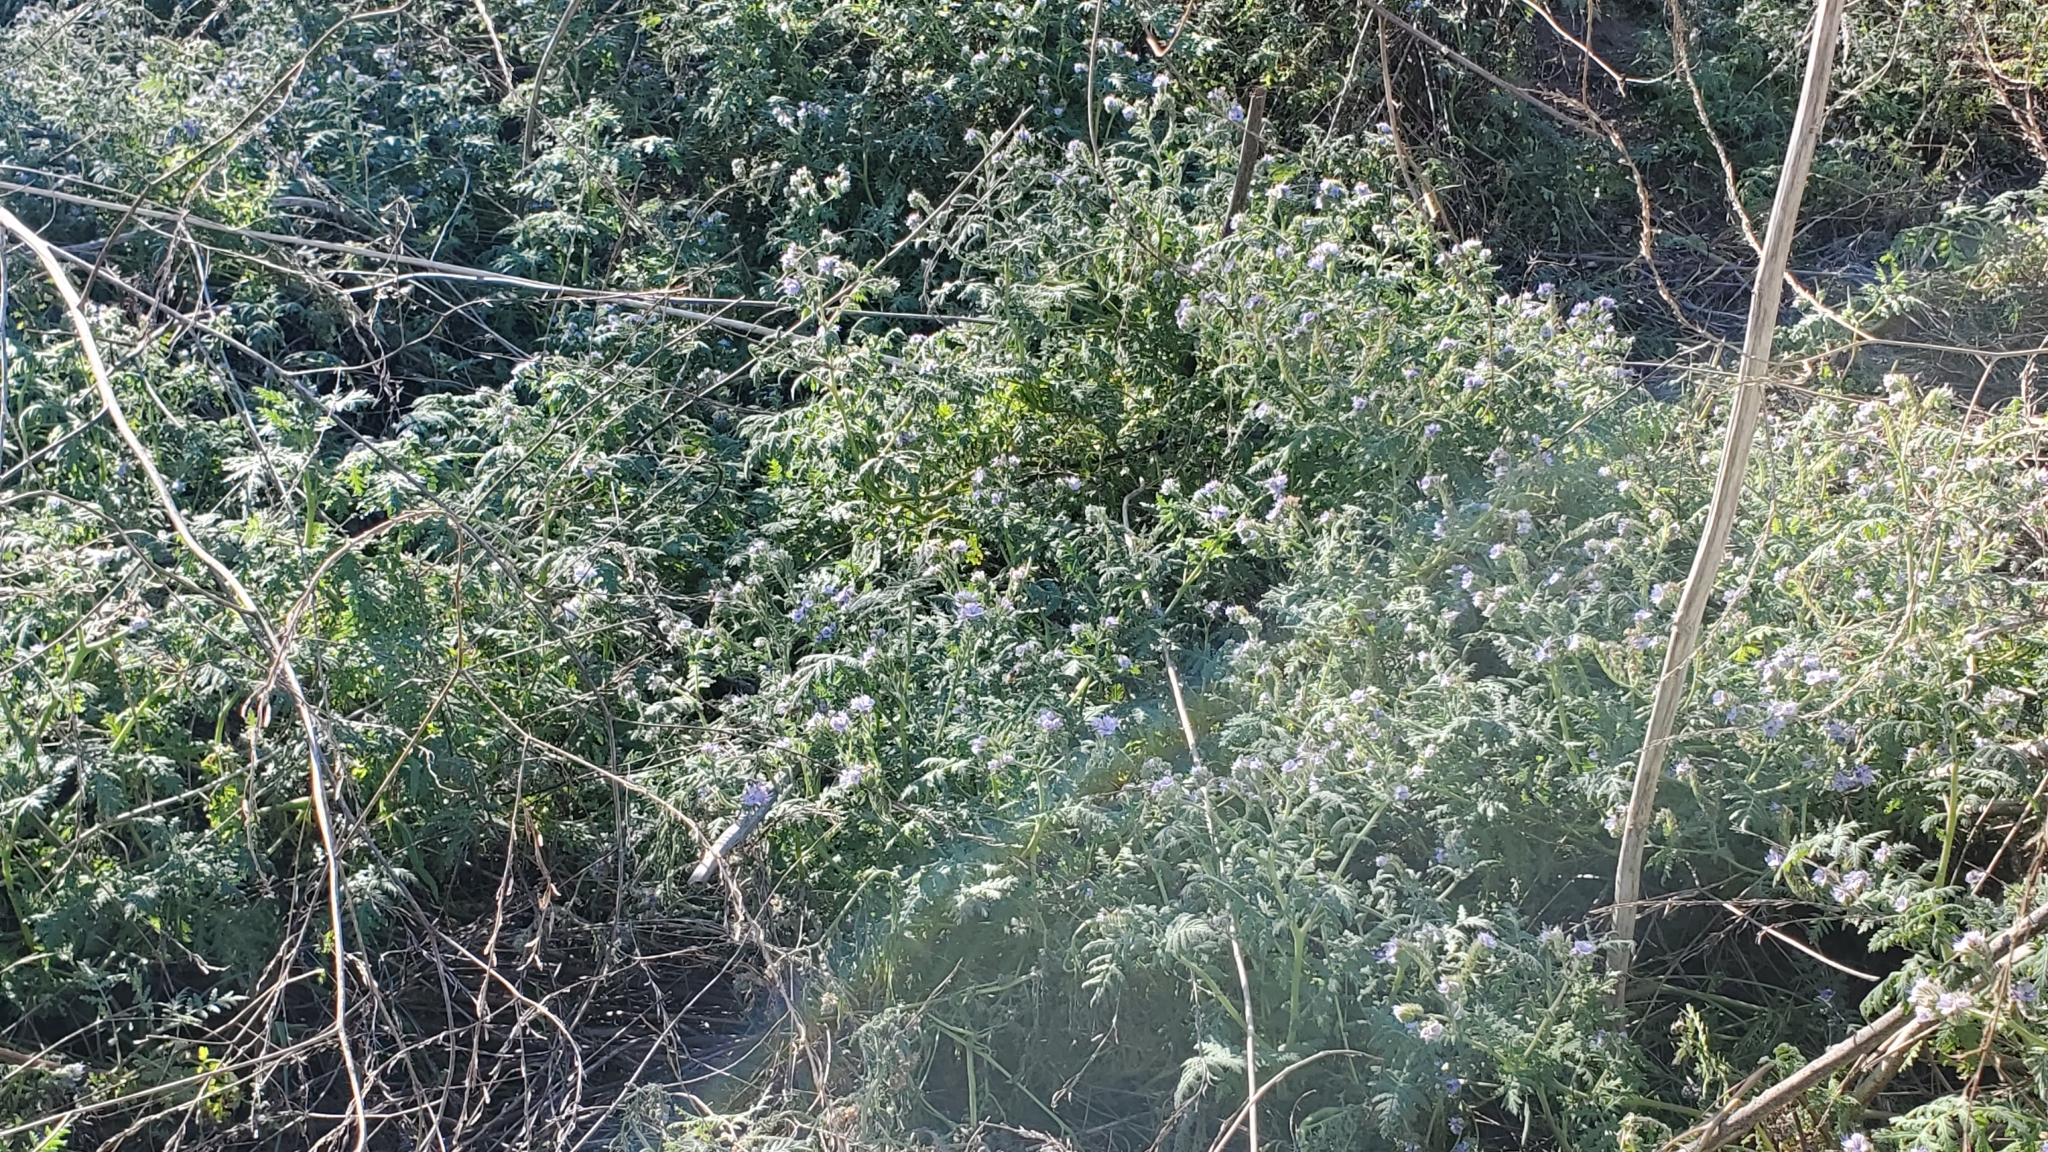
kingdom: Plantae
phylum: Tracheophyta
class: Magnoliopsida
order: Boraginales
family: Hydrophyllaceae
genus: Phacelia
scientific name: Phacelia distans
